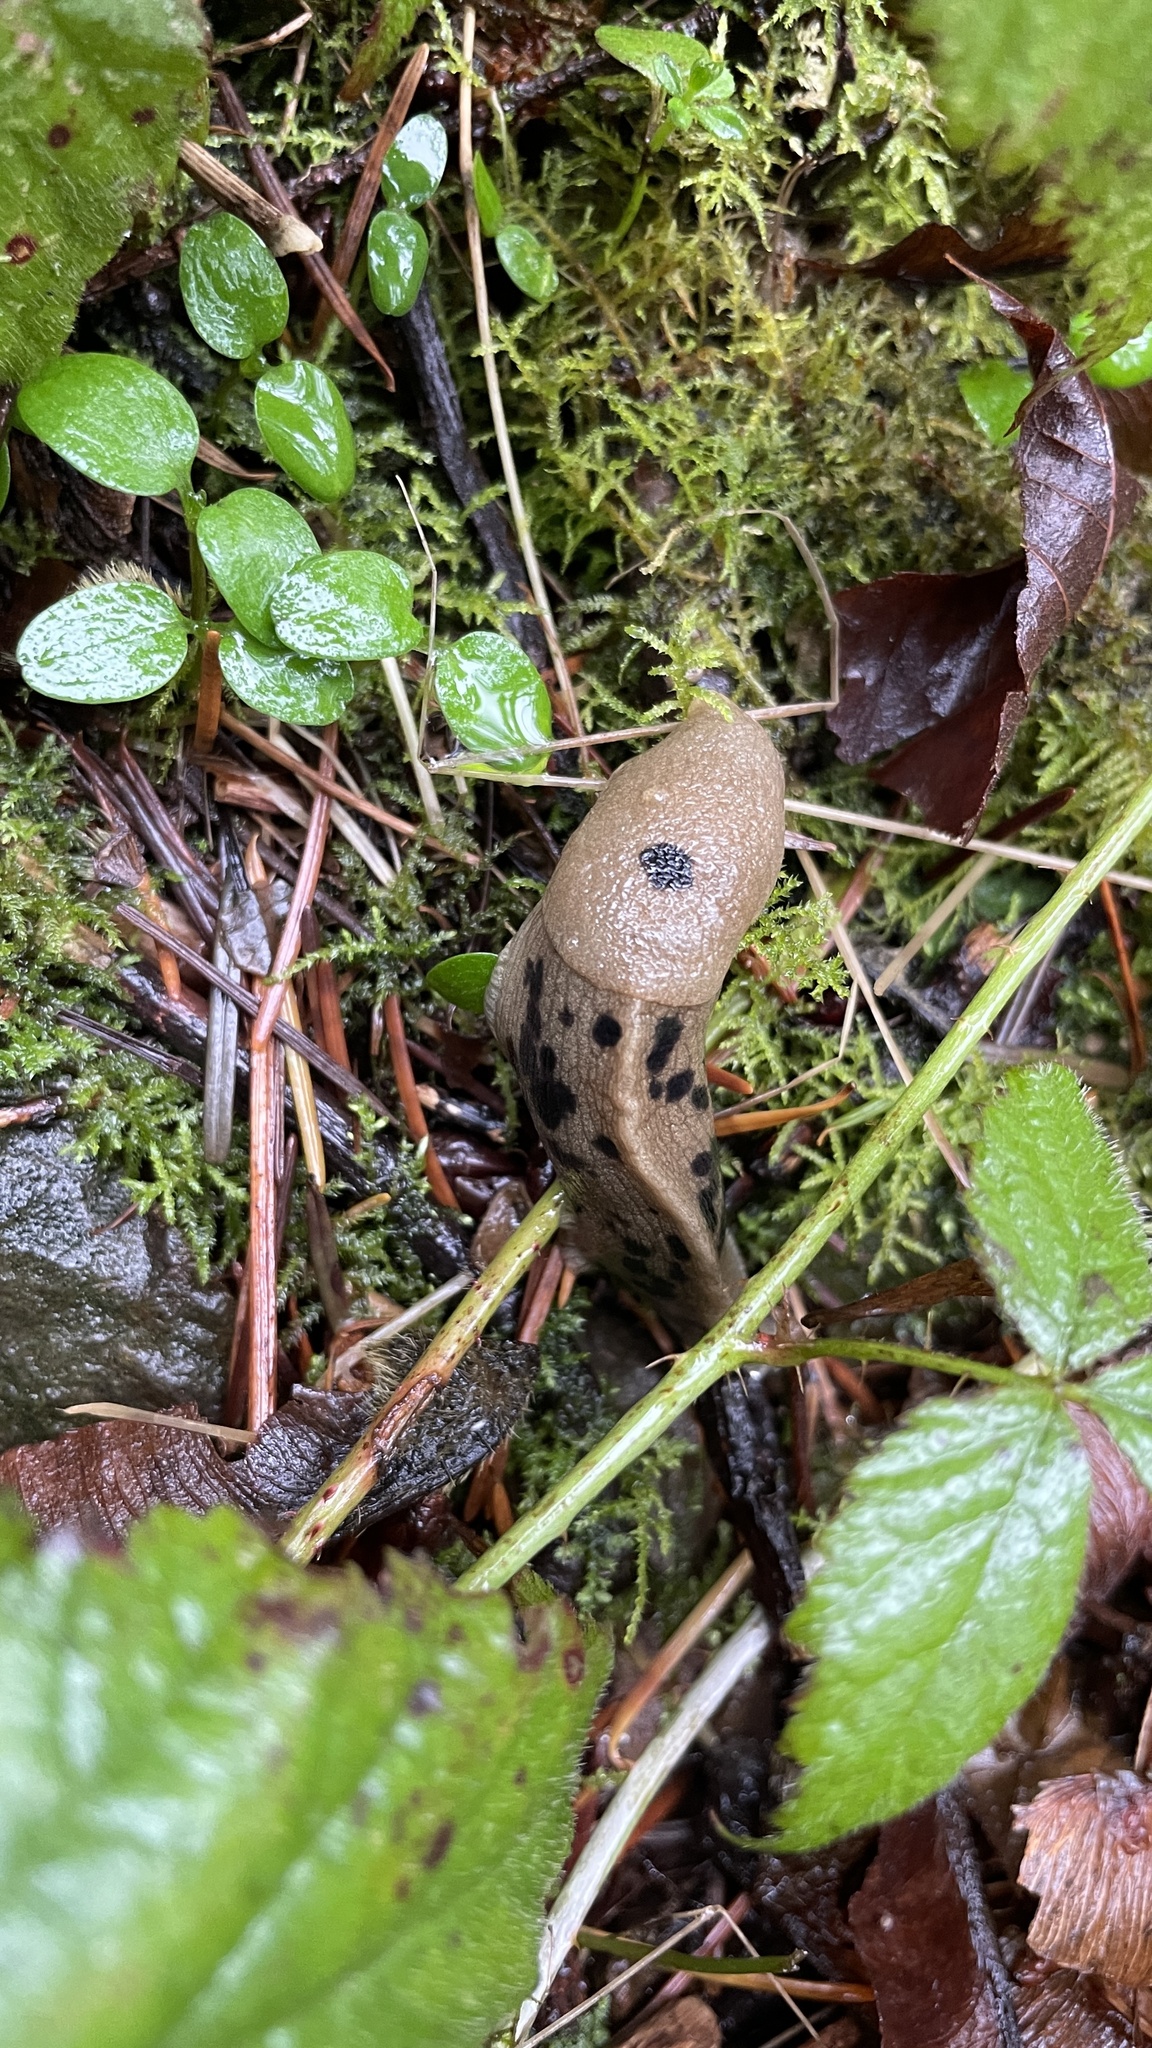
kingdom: Animalia
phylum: Mollusca
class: Gastropoda
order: Stylommatophora
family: Ariolimacidae
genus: Ariolimax
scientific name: Ariolimax columbianus
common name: Pacific banana slug
